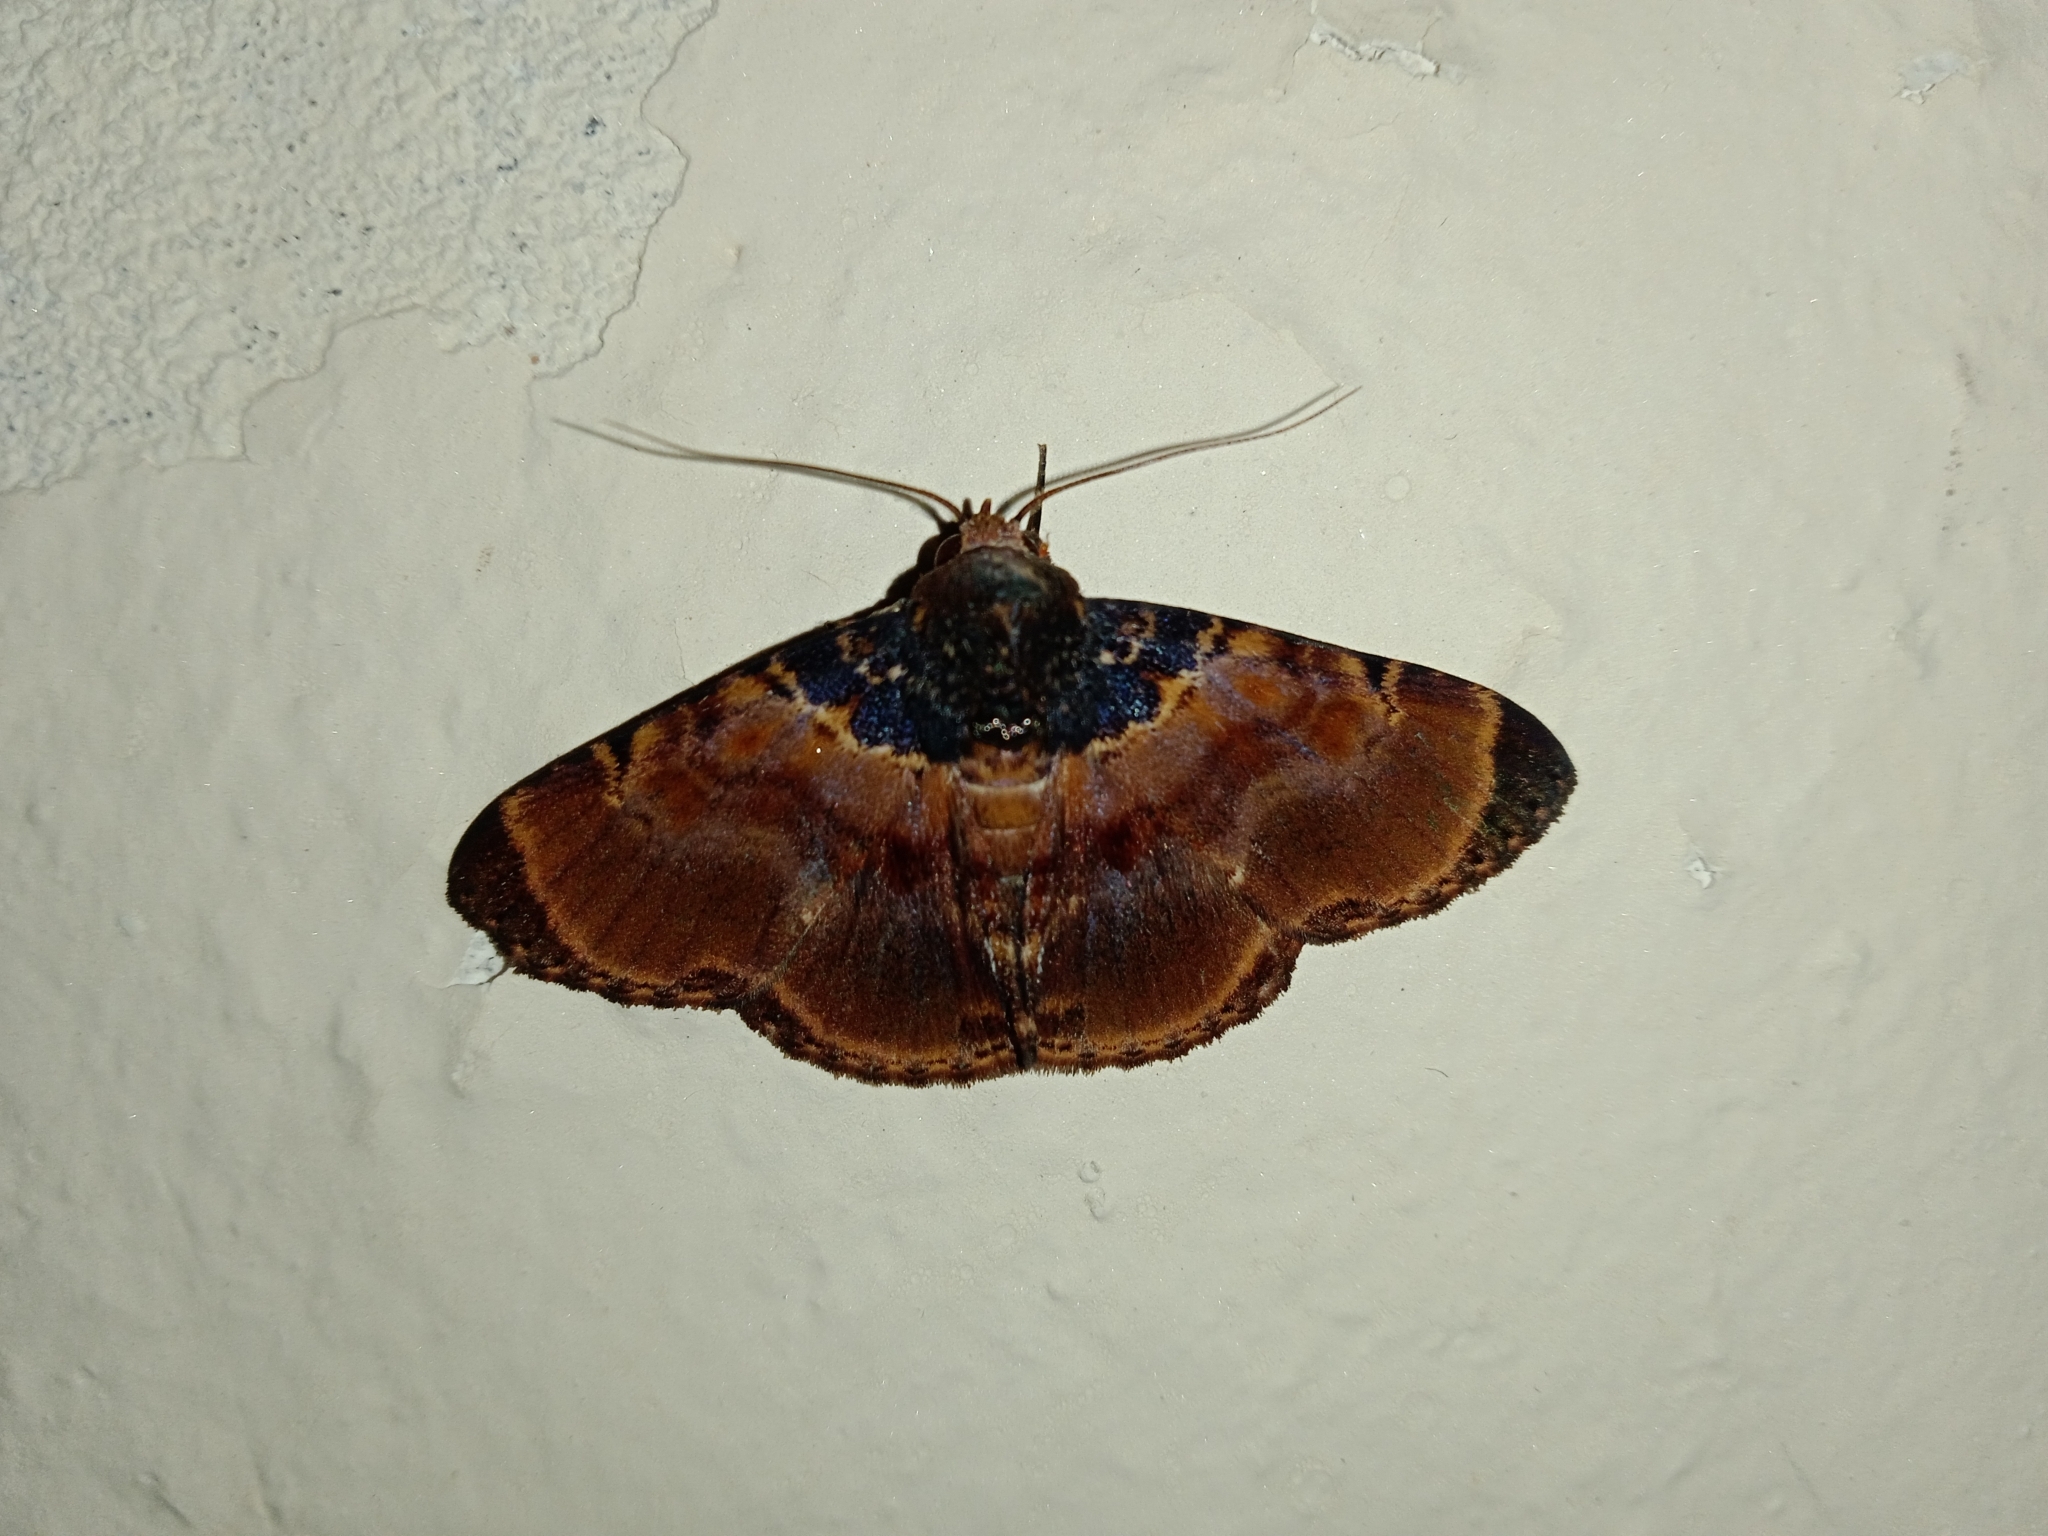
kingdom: Animalia
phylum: Arthropoda
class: Insecta
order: Lepidoptera
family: Erebidae
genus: Diomea
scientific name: Diomea lignicolora
